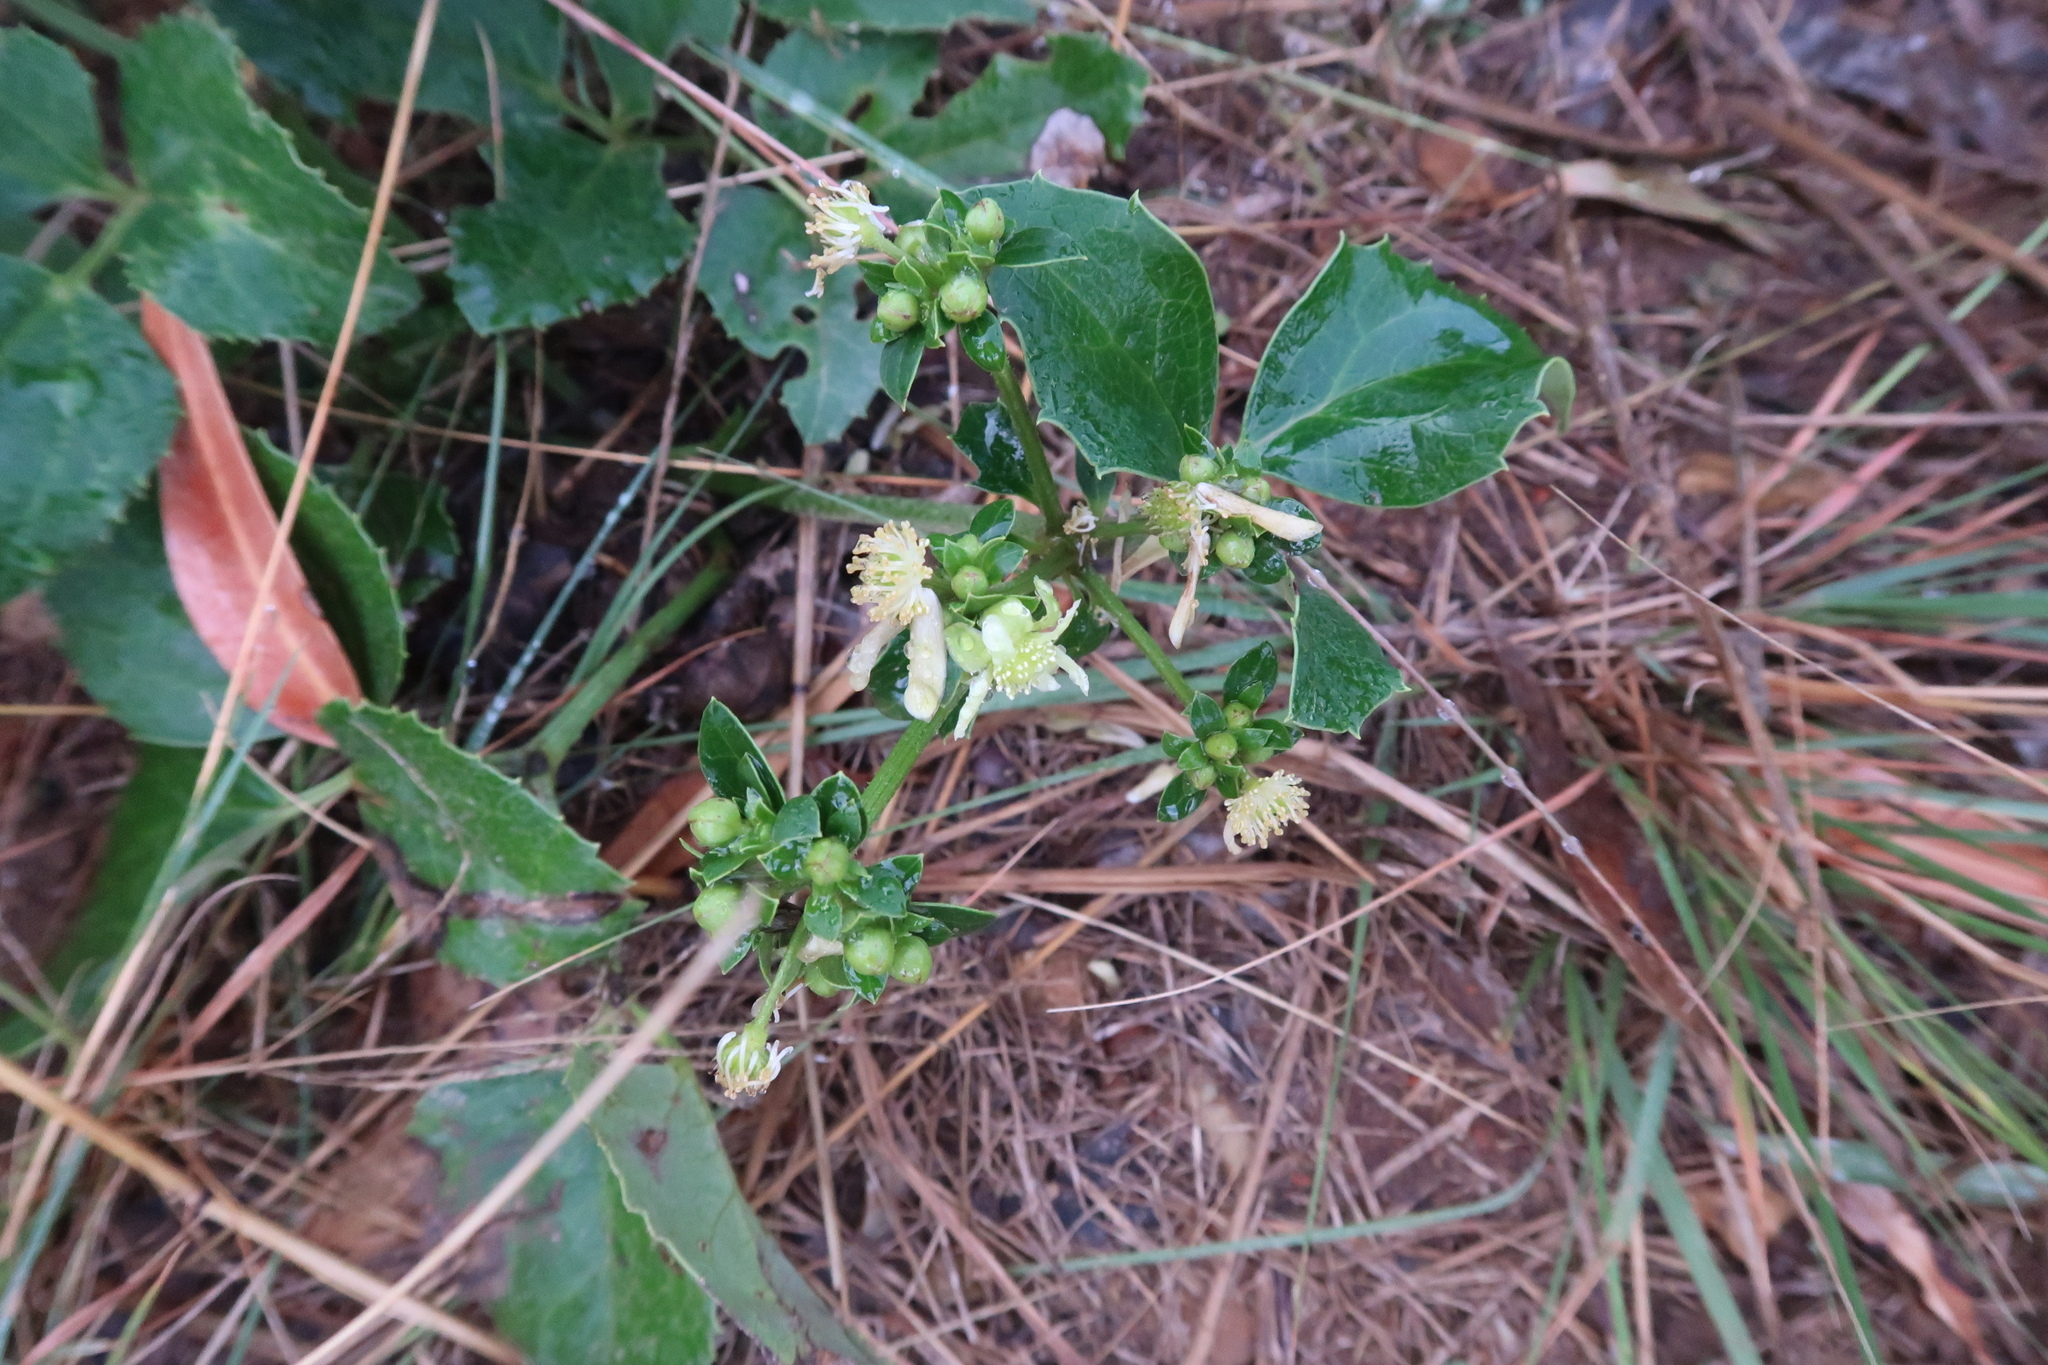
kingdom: Plantae
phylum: Tracheophyta
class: Magnoliopsida
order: Ranunculales
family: Ranunculaceae
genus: Knowltonia
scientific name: Knowltonia vesicatoria
